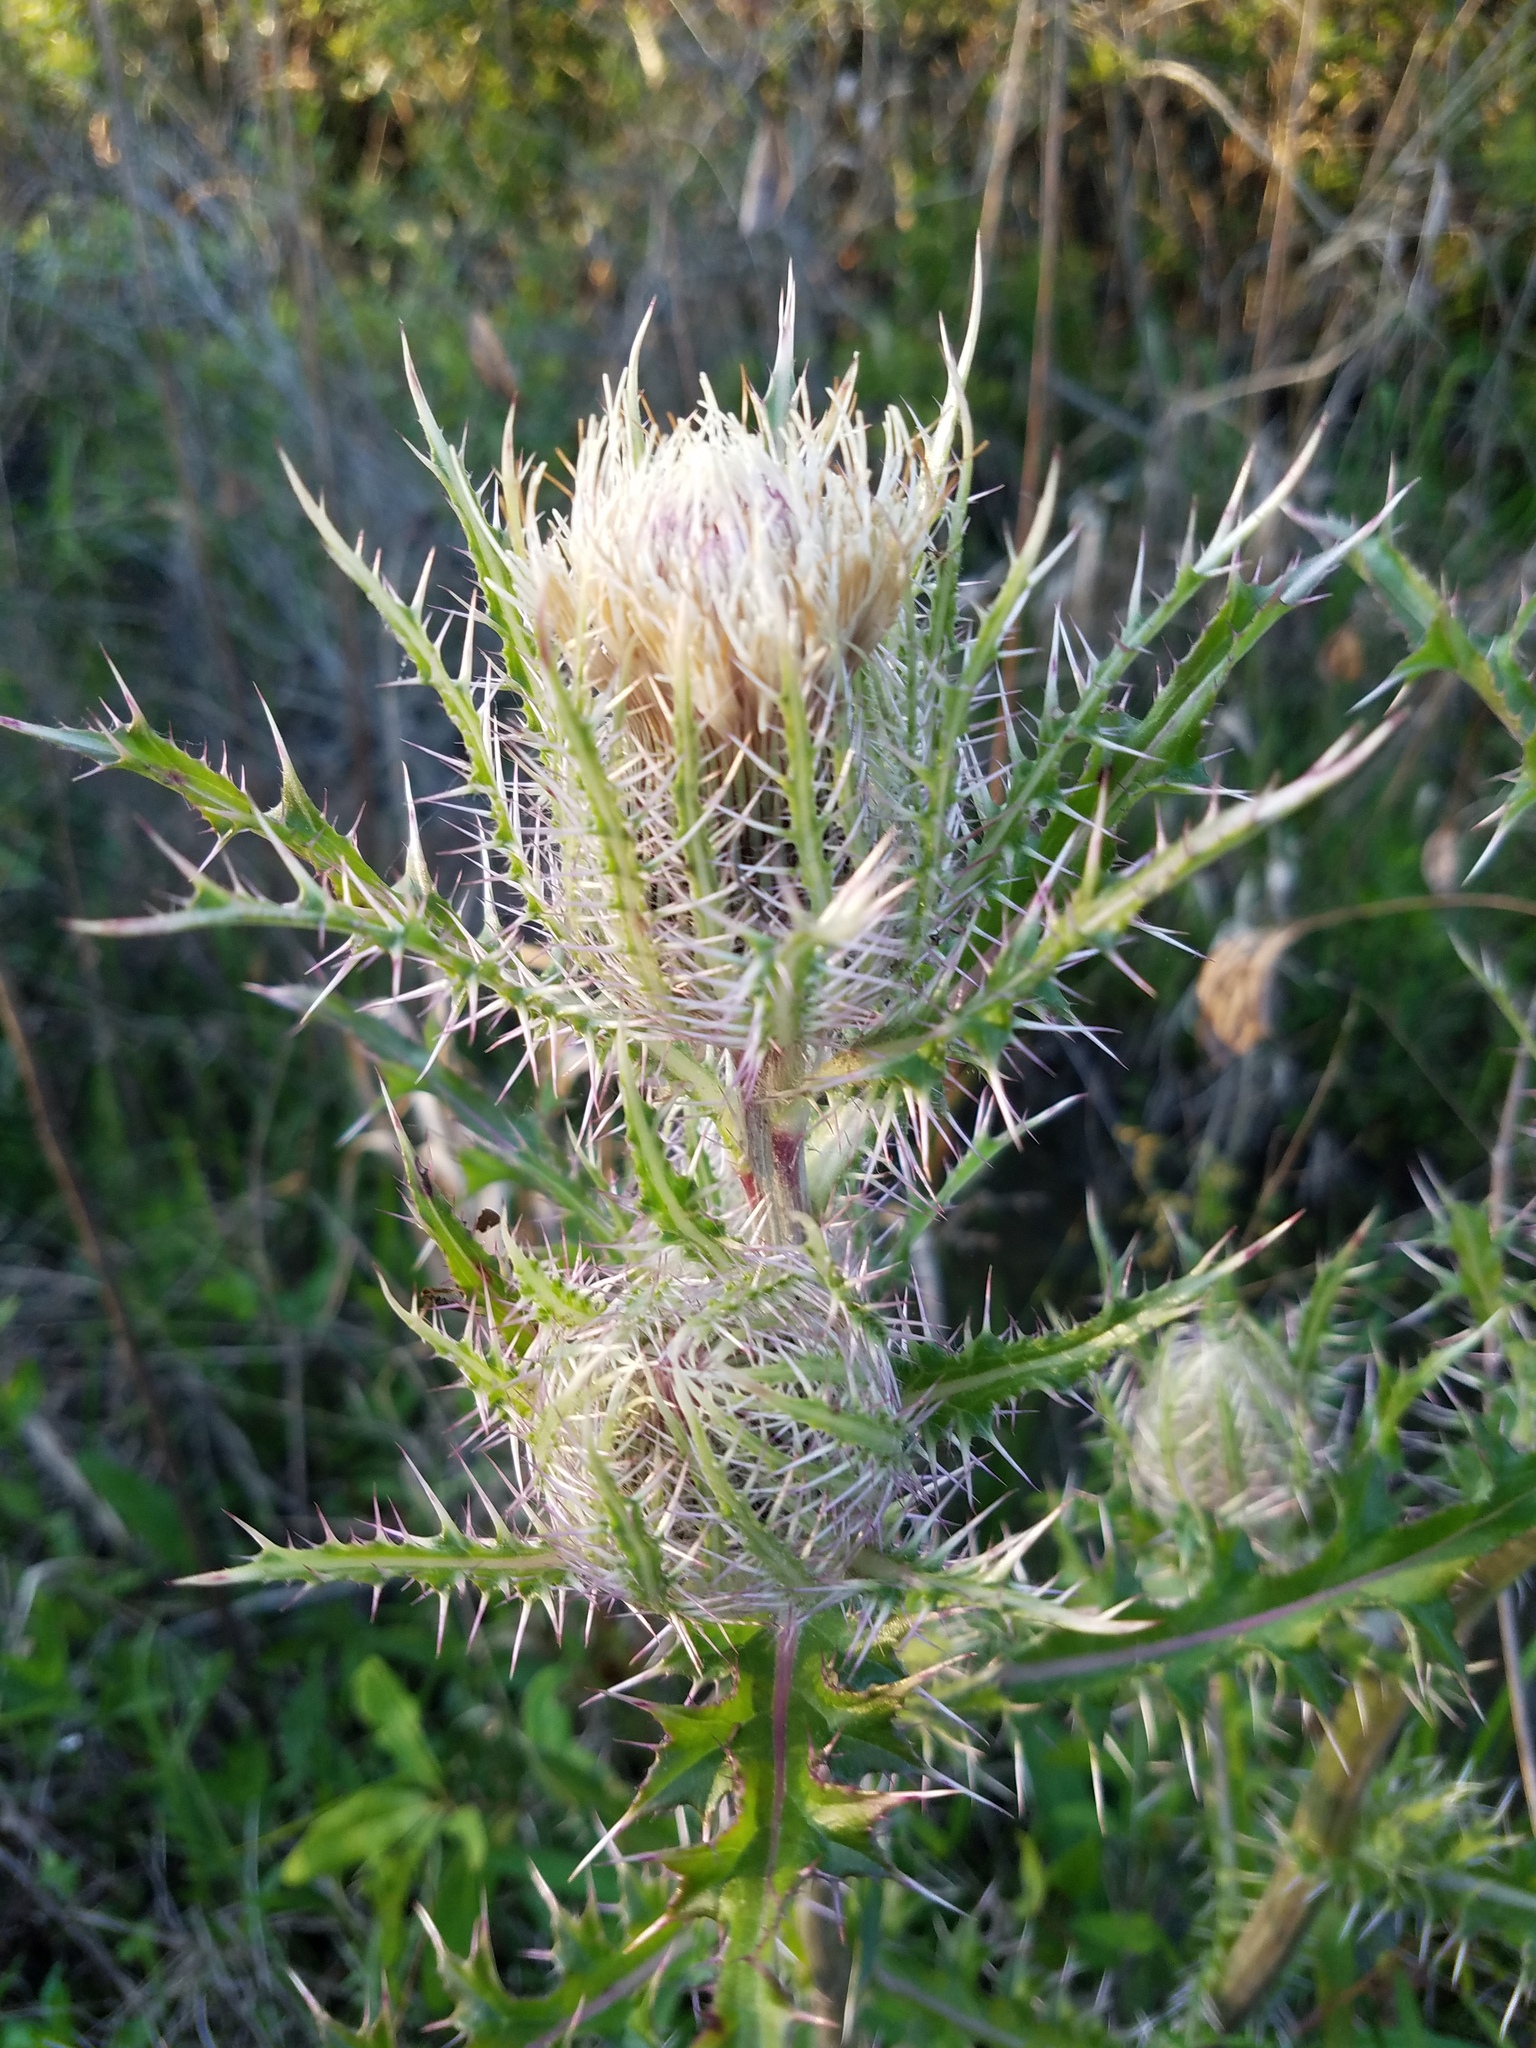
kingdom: Plantae
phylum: Tracheophyta
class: Magnoliopsida
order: Asterales
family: Asteraceae
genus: Cirsium
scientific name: Cirsium horridulum
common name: Bristly thistle
